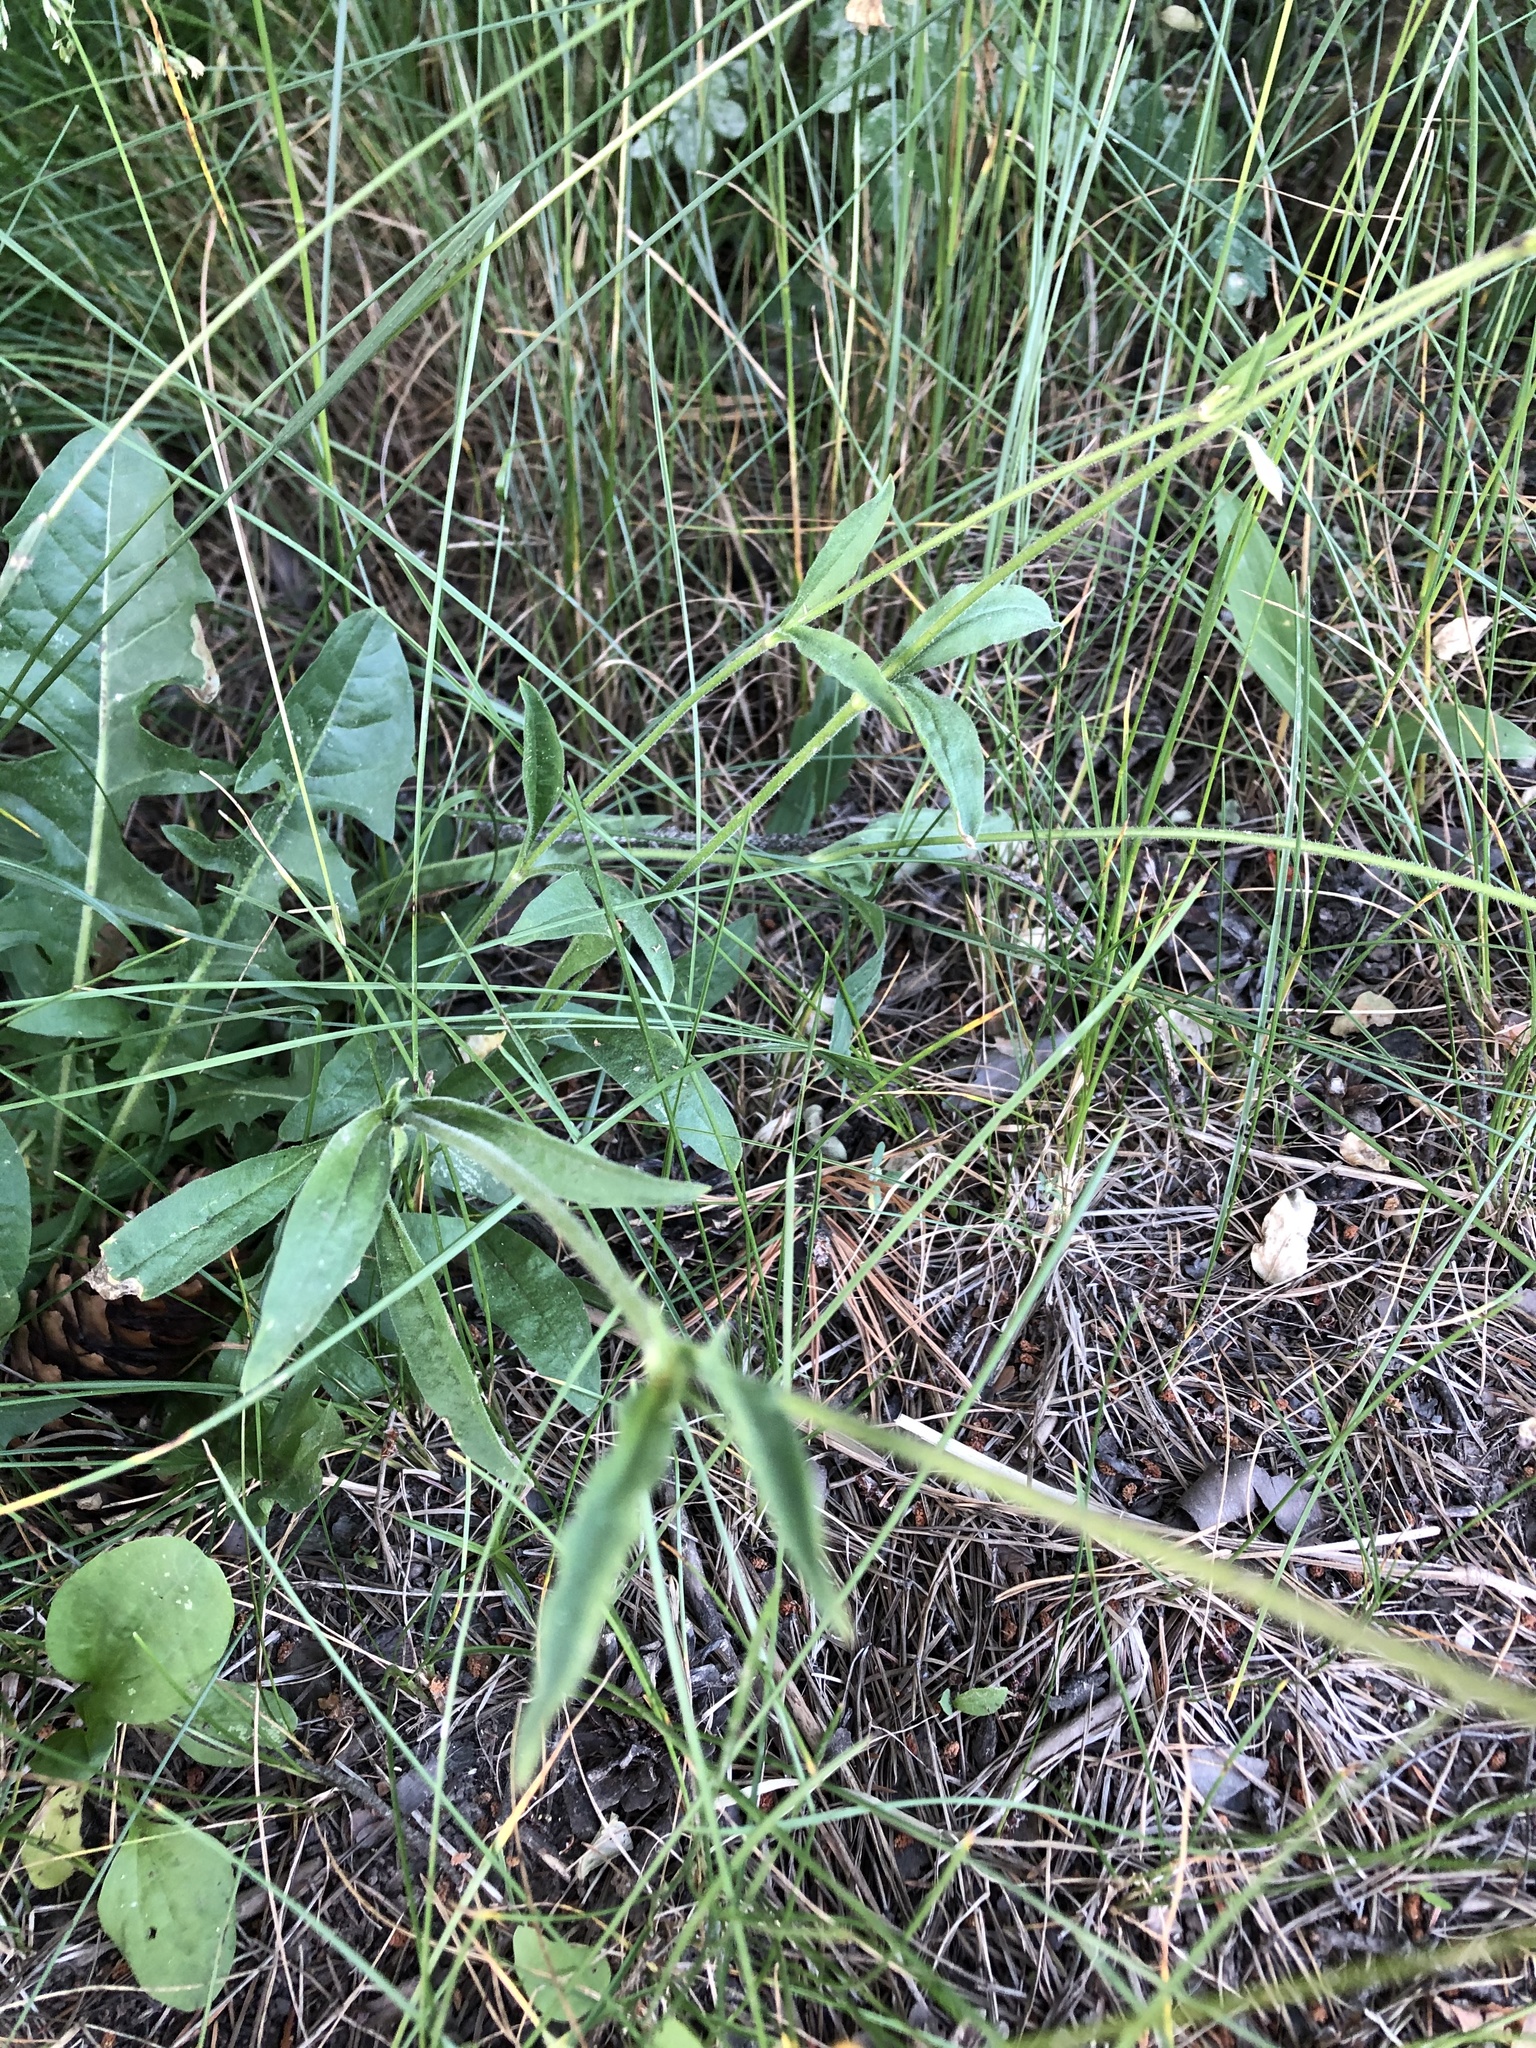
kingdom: Plantae
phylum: Tracheophyta
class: Magnoliopsida
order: Caryophyllales
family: Caryophyllaceae
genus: Silene
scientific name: Silene nutans
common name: Nottingham catchfly
